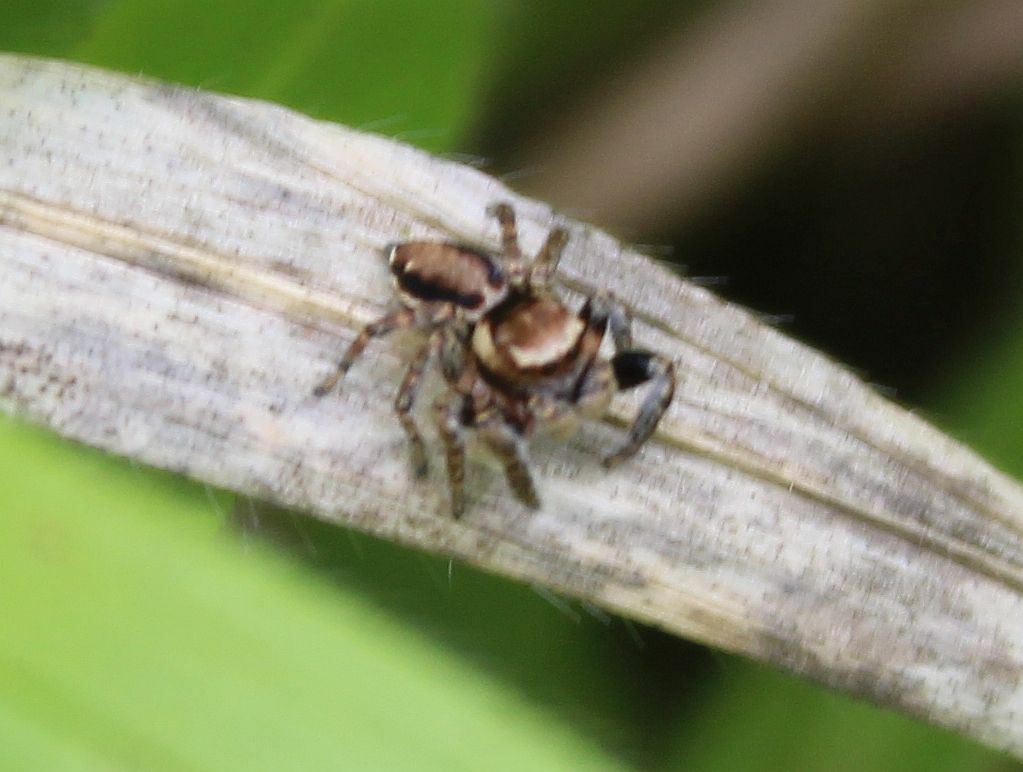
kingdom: Animalia
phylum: Arthropoda
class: Arachnida
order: Araneae
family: Salticidae
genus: Evarcha
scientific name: Evarcha falcata
